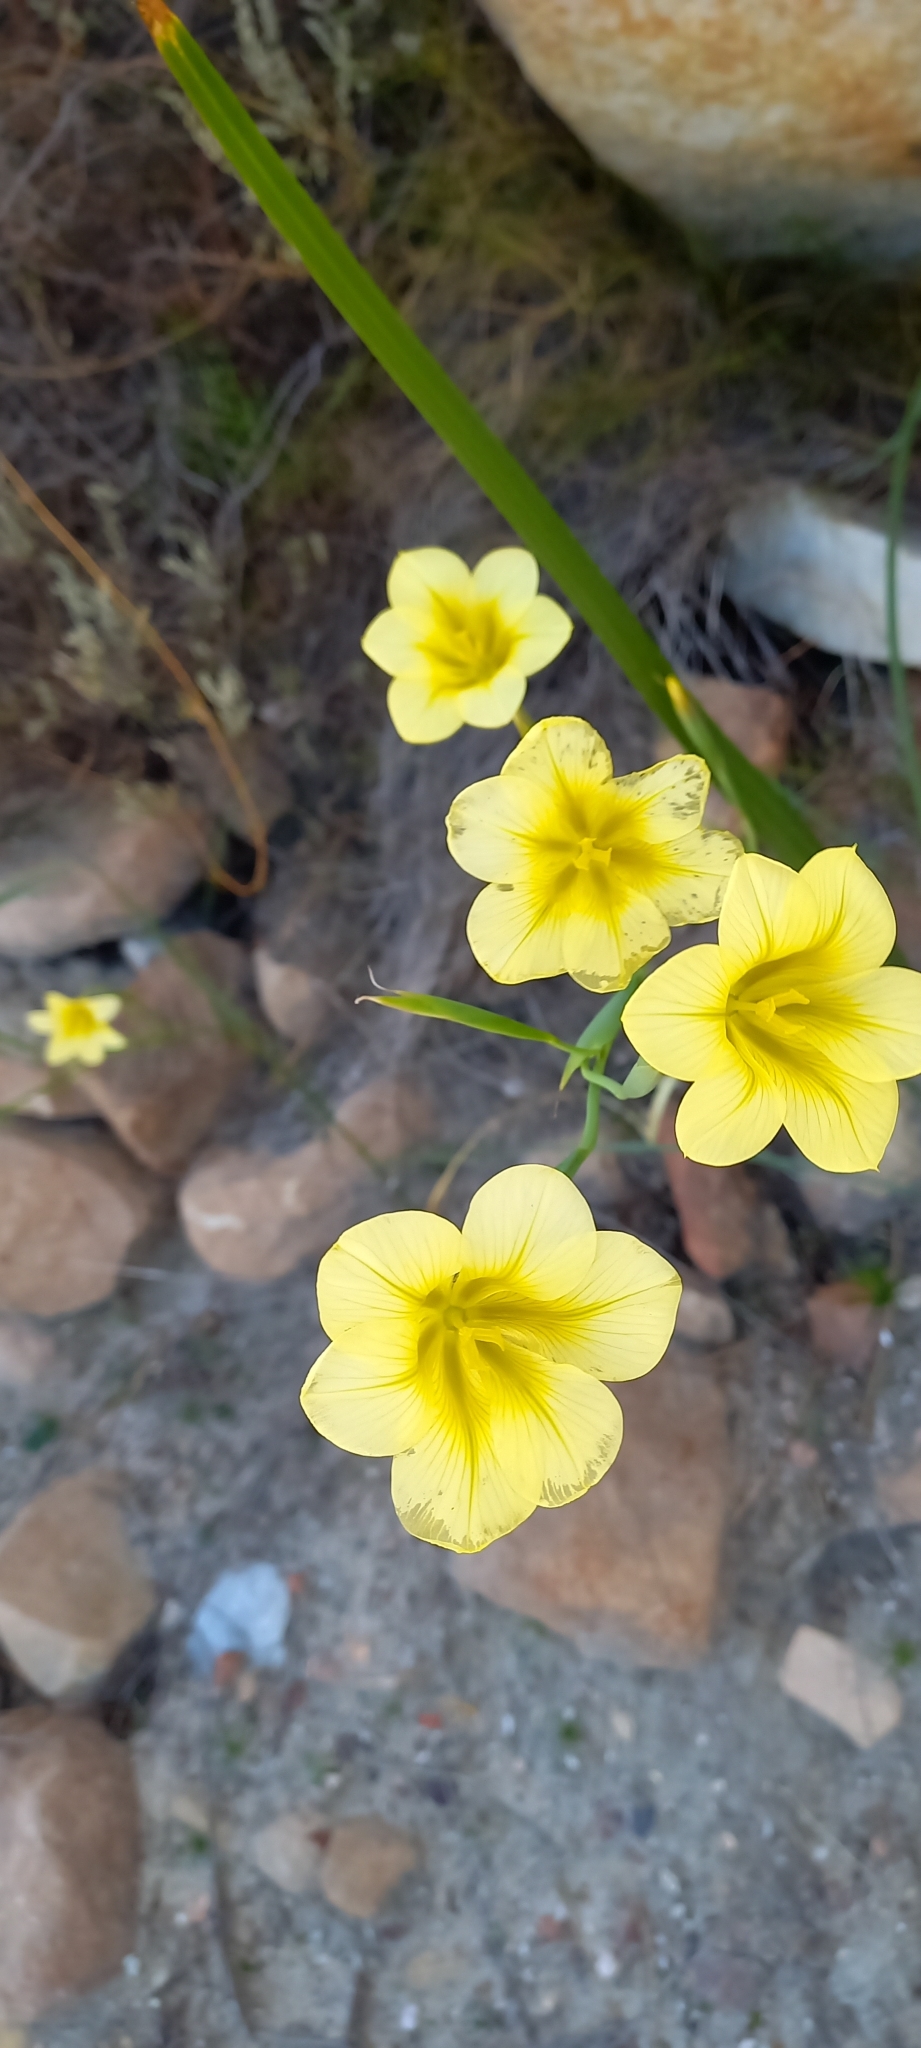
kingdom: Plantae
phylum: Tracheophyta
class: Liliopsida
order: Asparagales
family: Iridaceae
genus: Moraea
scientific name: Moraea ochroleuca
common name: Red tulp
